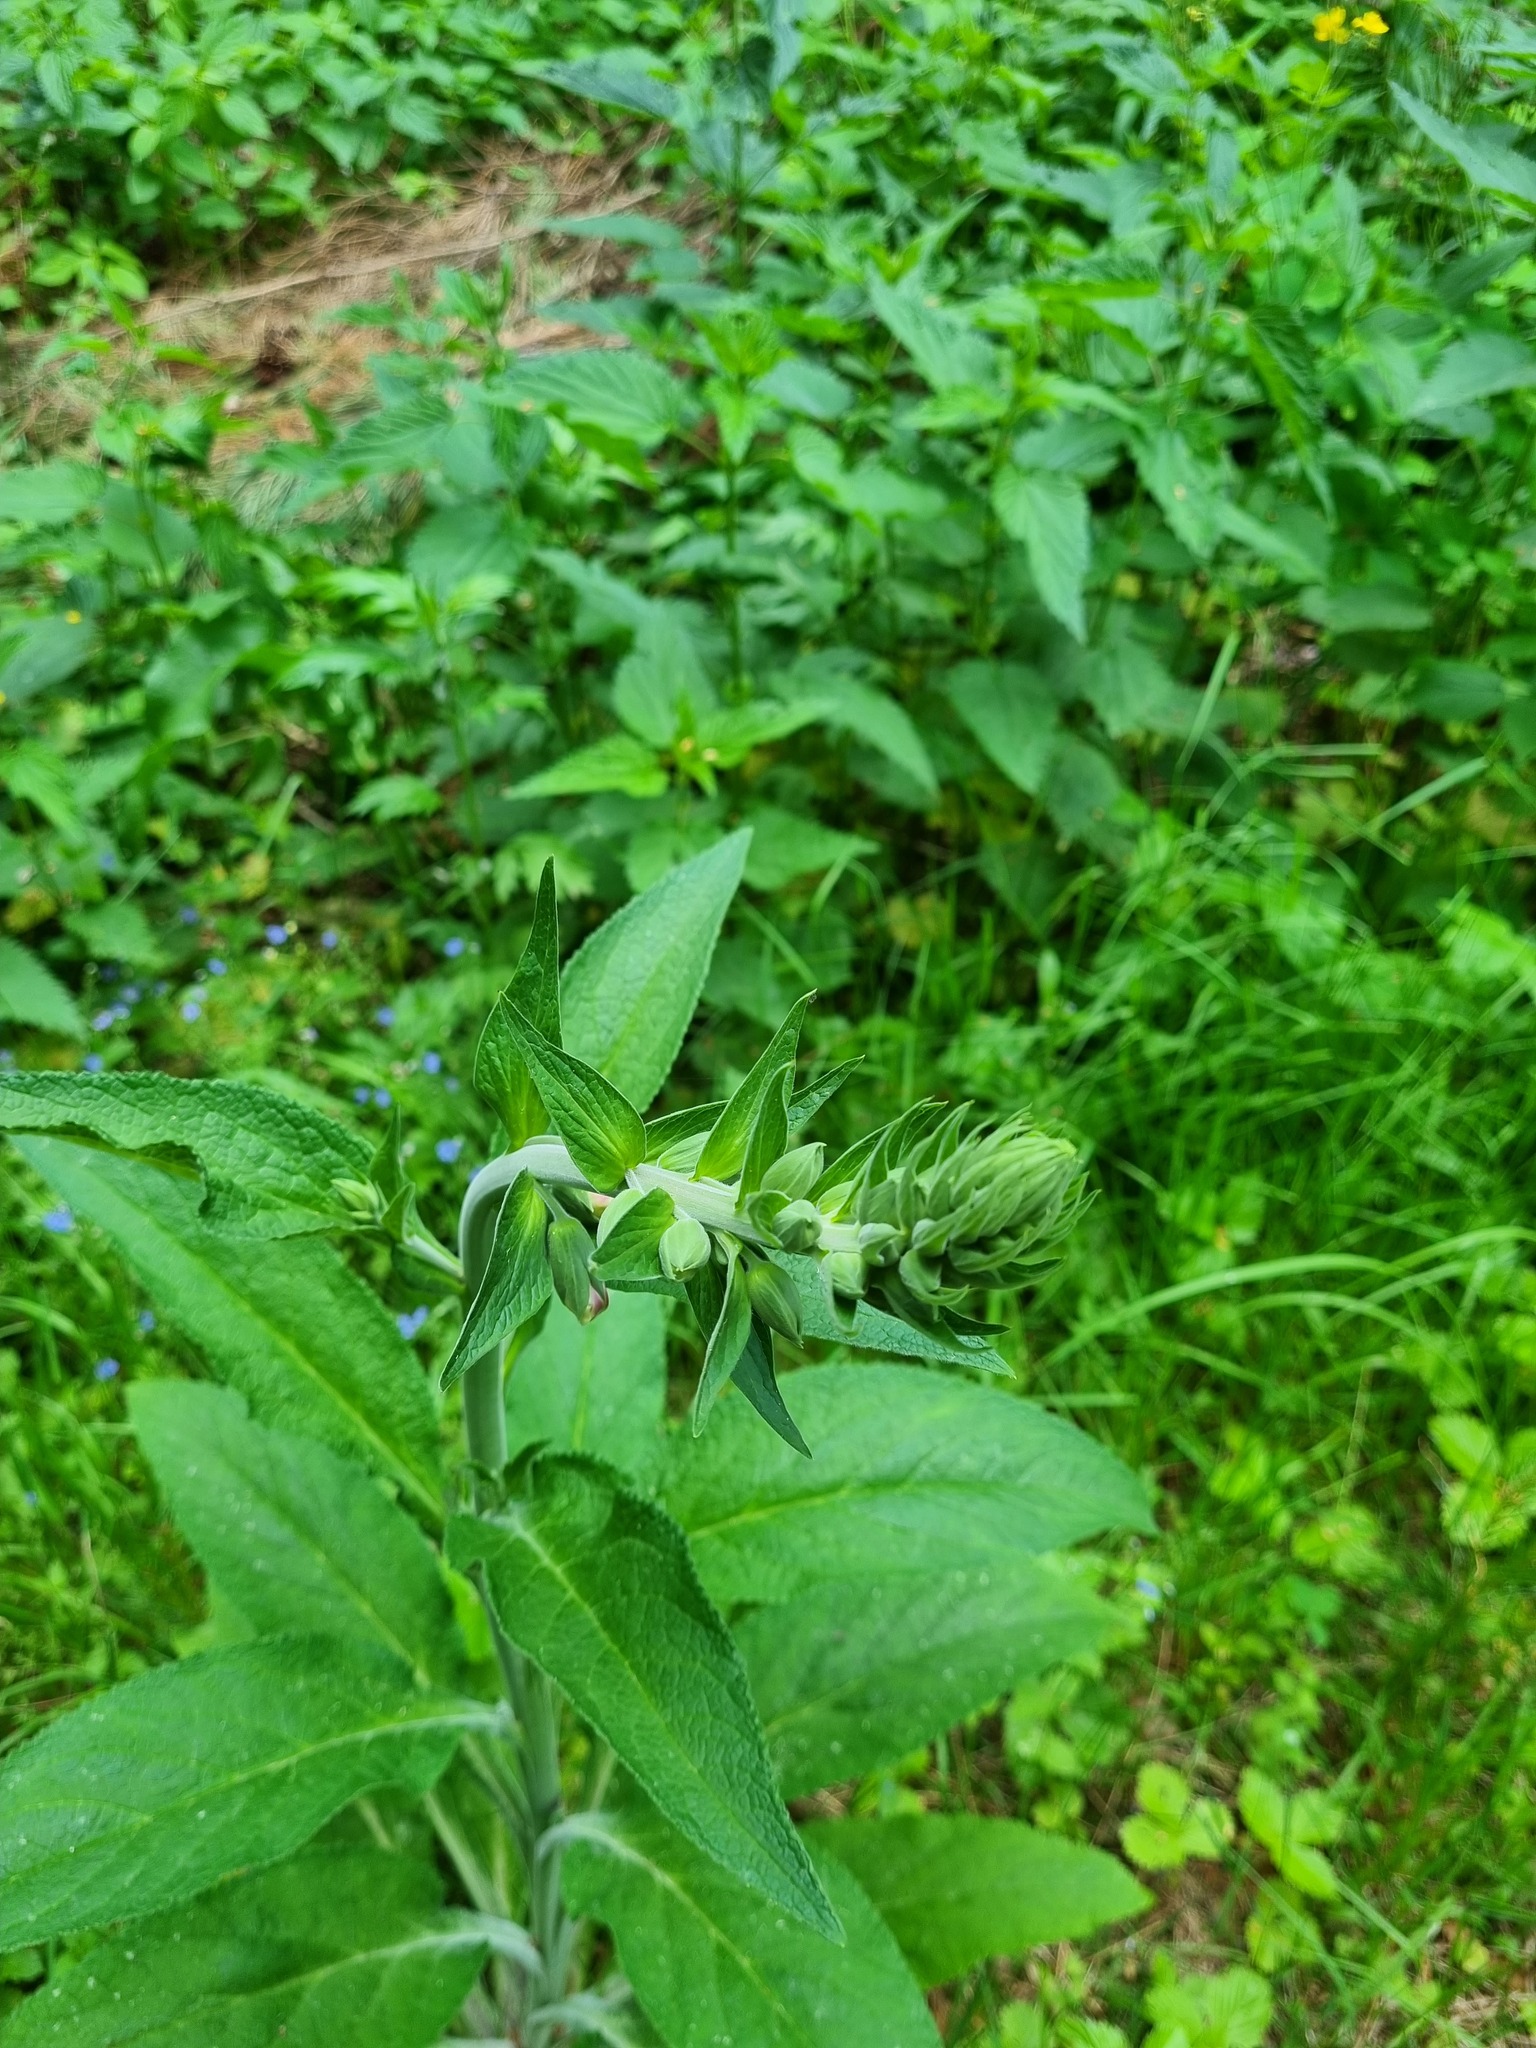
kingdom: Plantae
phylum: Tracheophyta
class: Magnoliopsida
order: Lamiales
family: Plantaginaceae
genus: Digitalis
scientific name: Digitalis purpurea
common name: Foxglove
